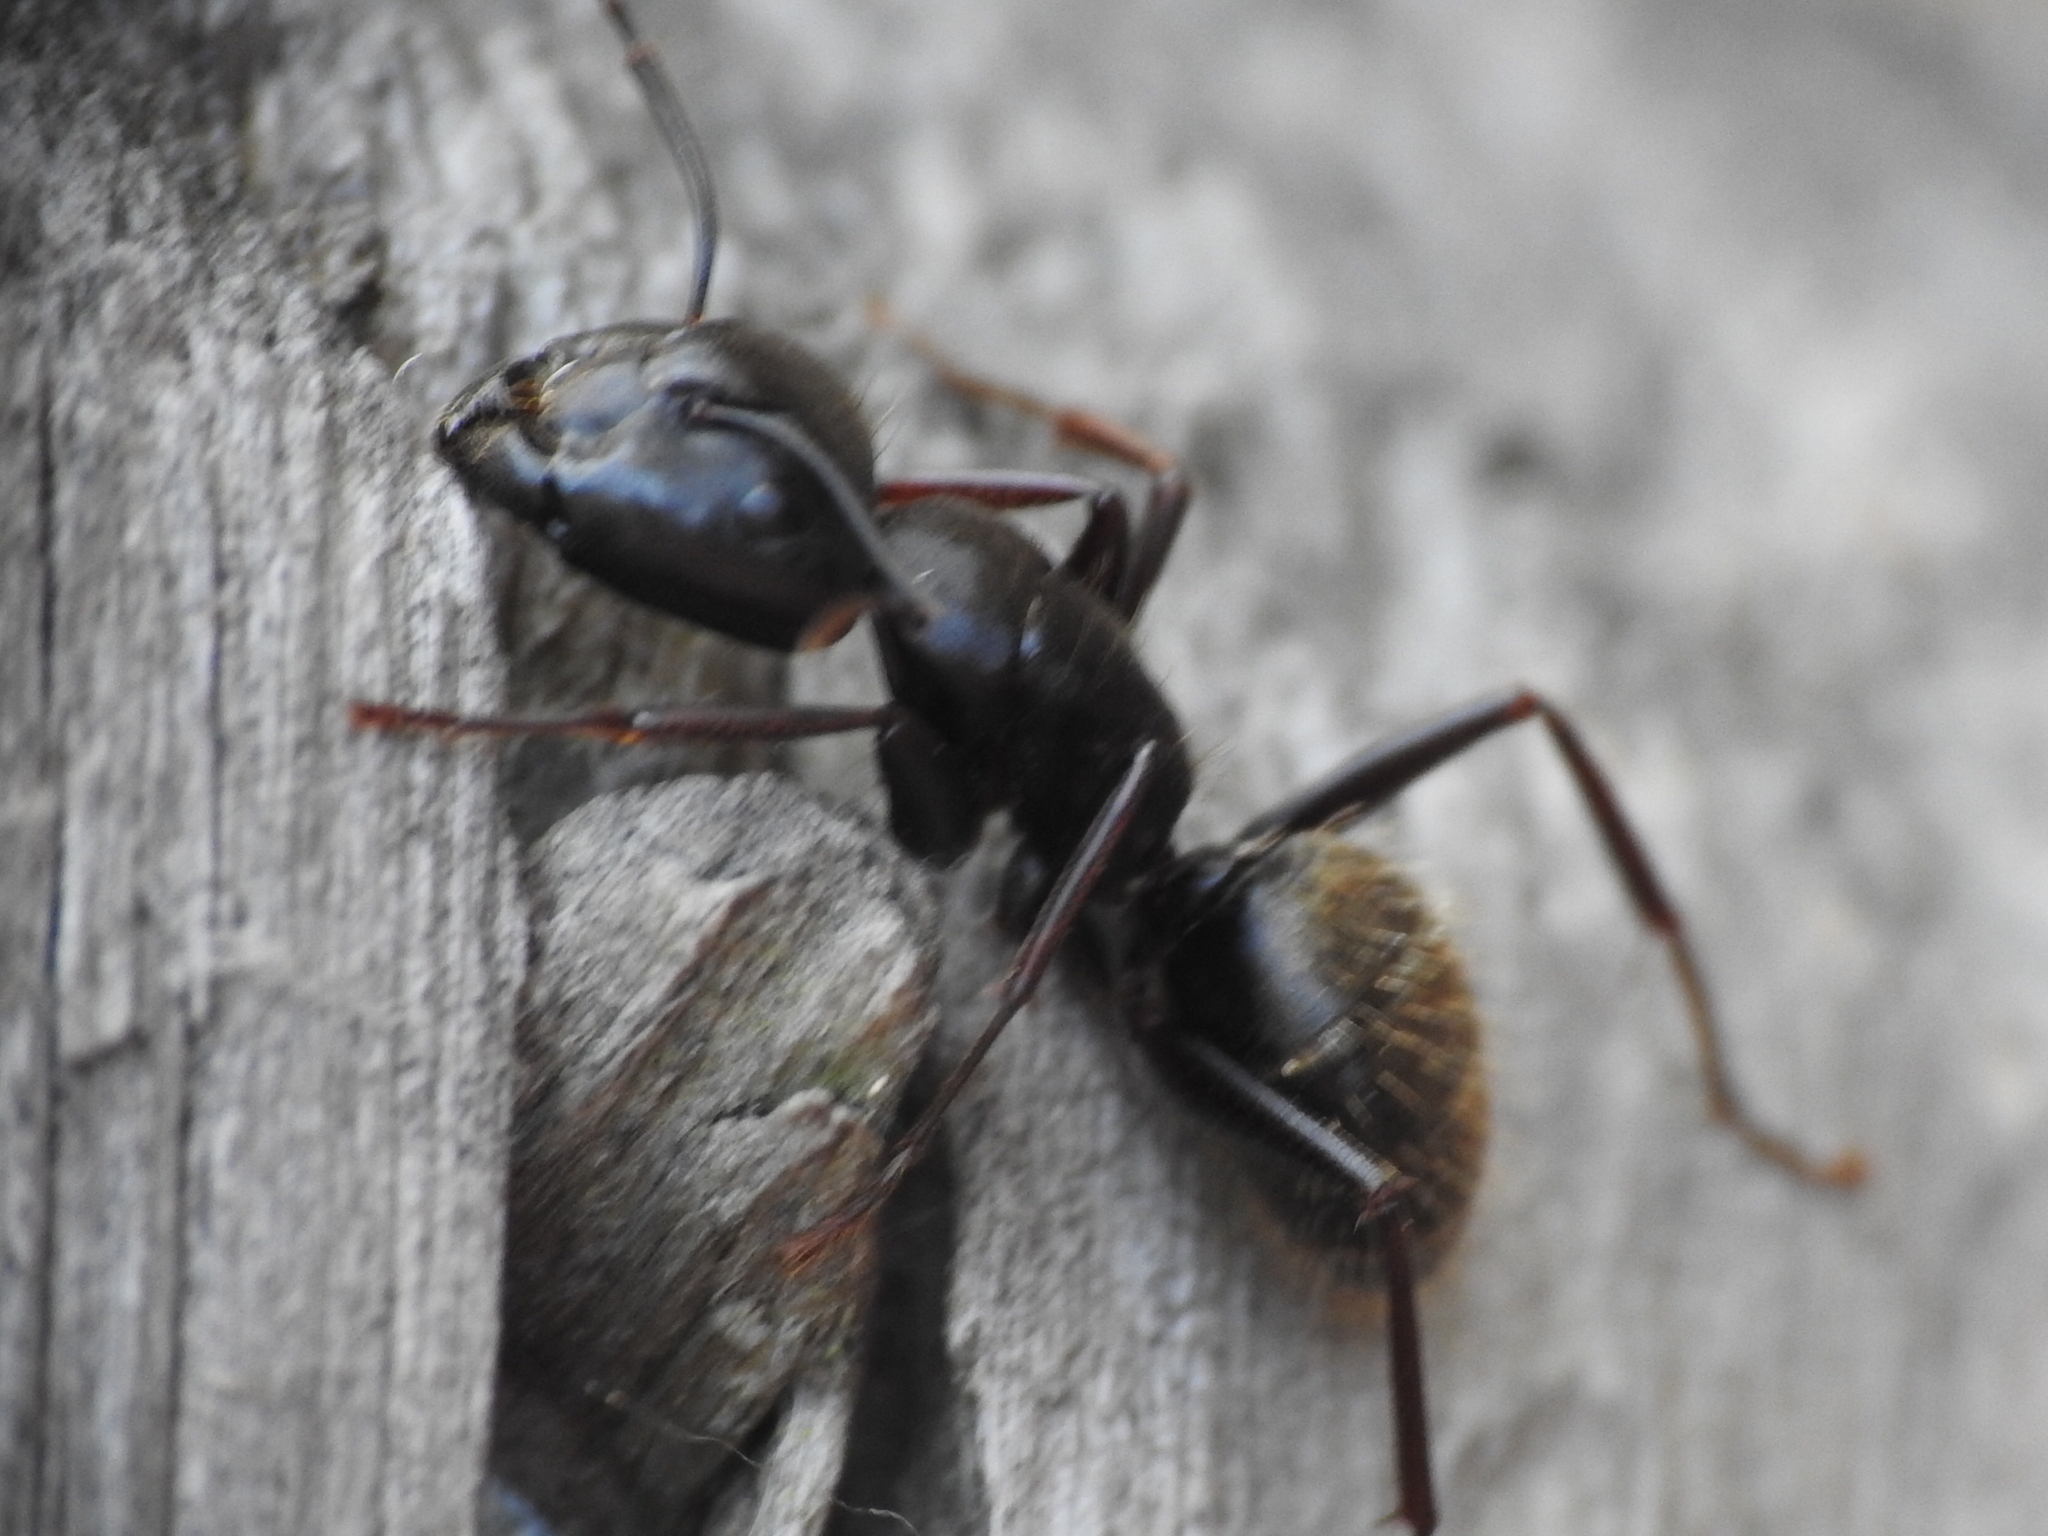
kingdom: Animalia
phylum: Arthropoda
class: Insecta
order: Hymenoptera
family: Formicidae
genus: Camponotus
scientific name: Camponotus pennsylvanicus
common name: Black carpenter ant
